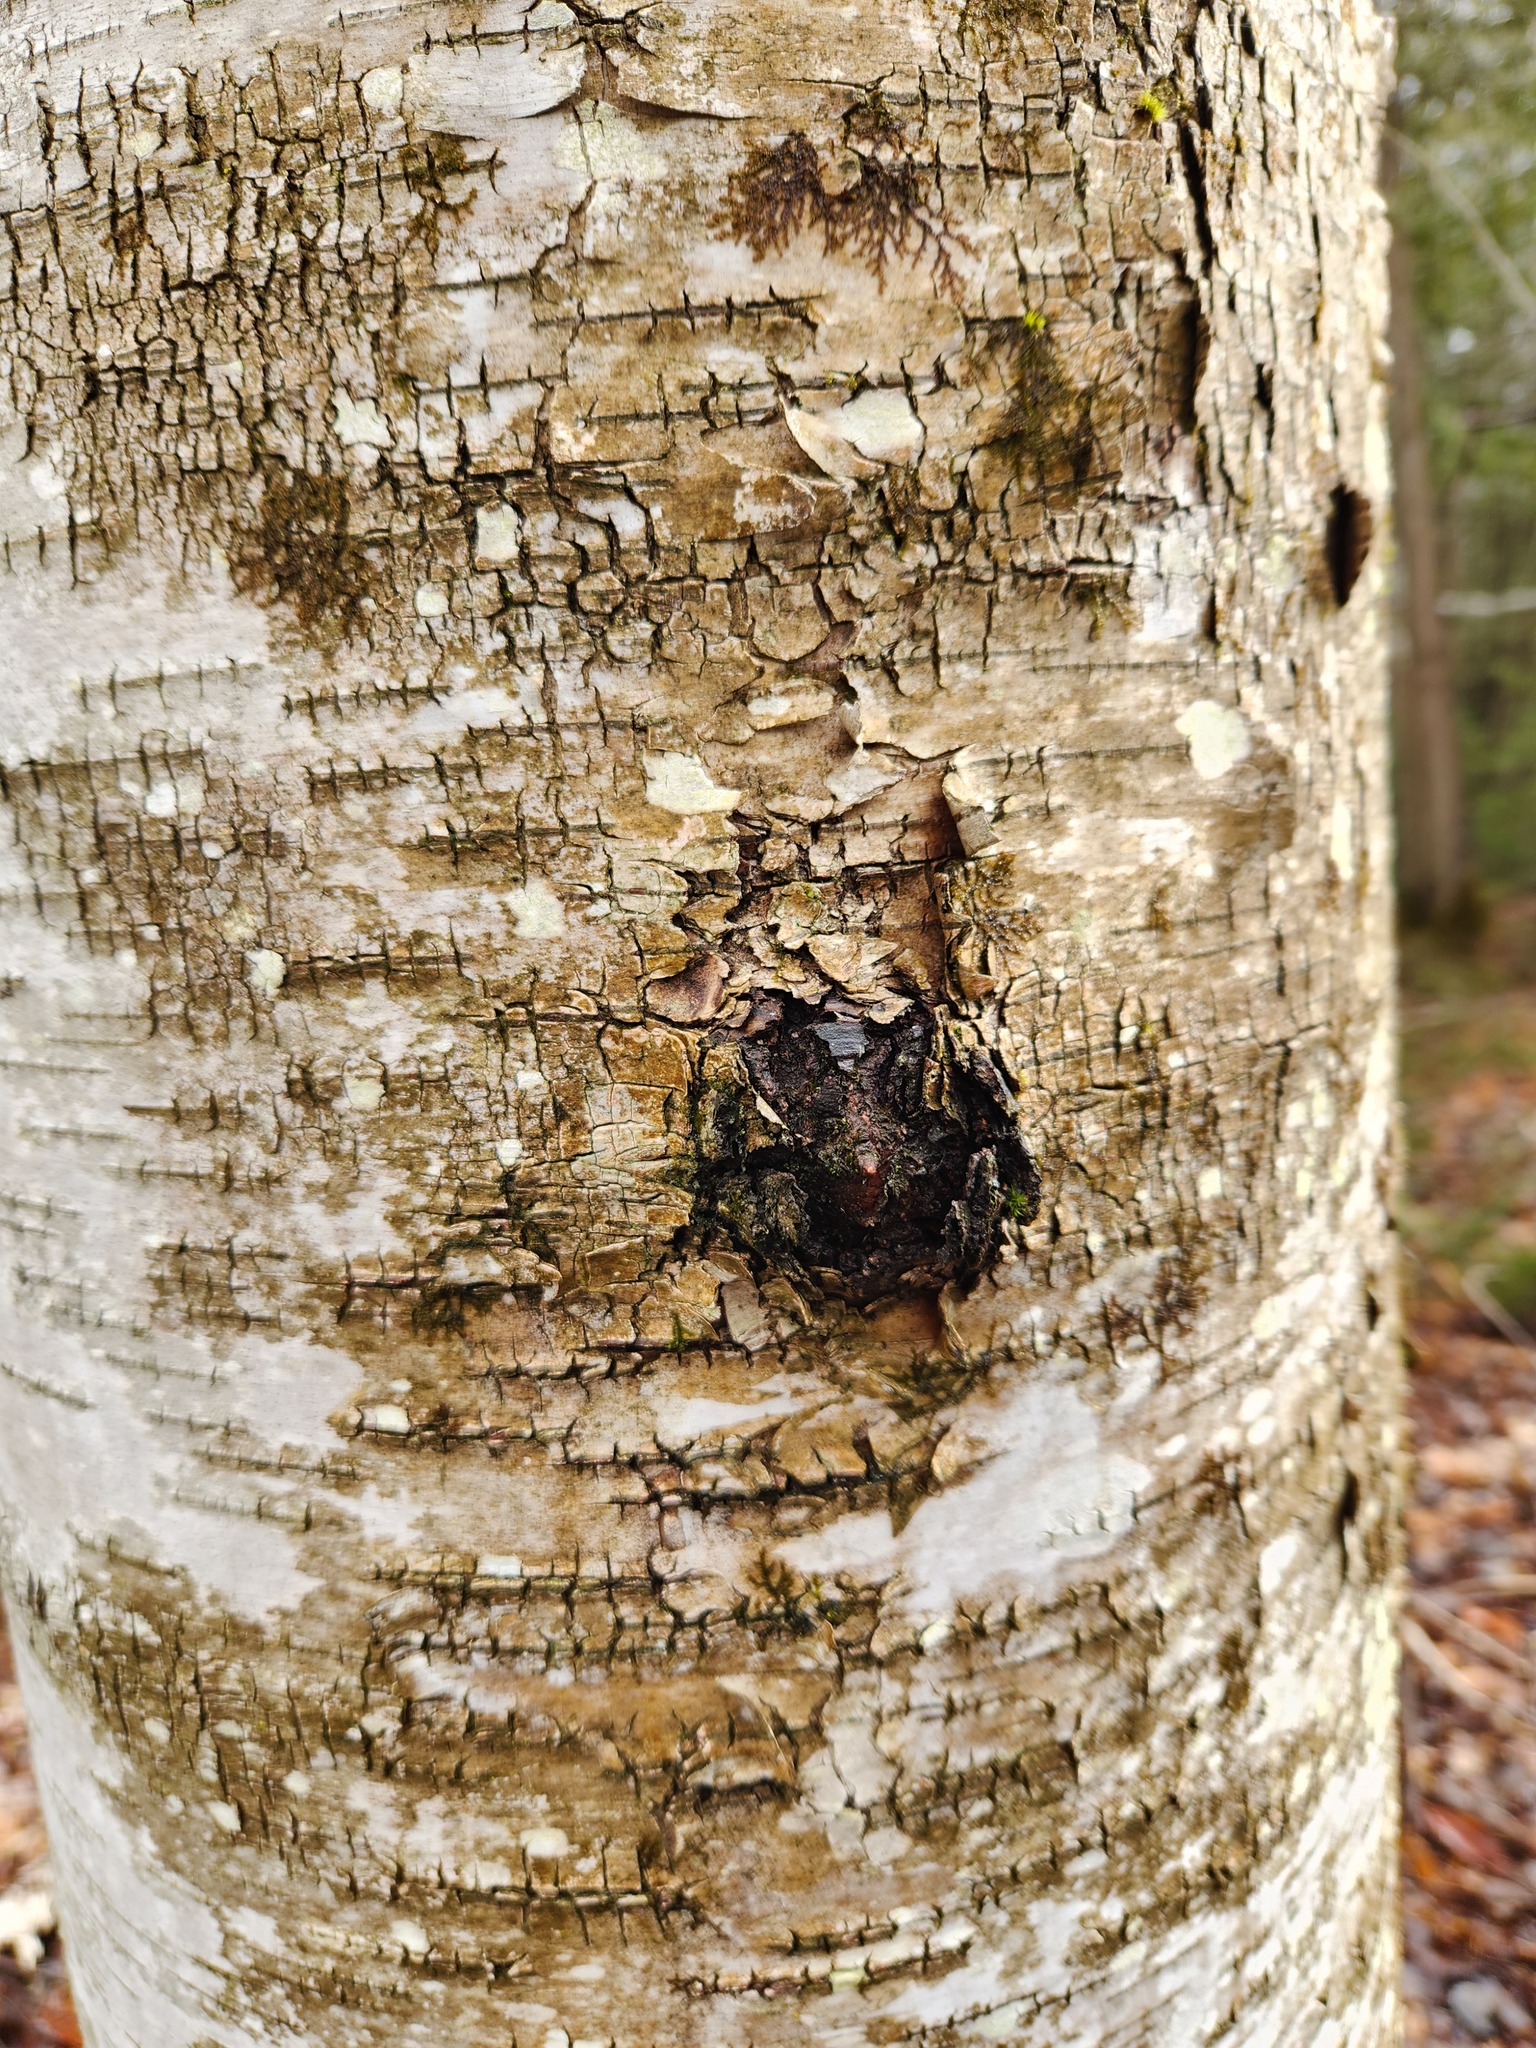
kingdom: Fungi
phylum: Basidiomycota
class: Agaricomycetes
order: Hymenochaetales
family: Hymenochaetaceae
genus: Inonotus
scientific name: Inonotus obliquus
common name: Chaga
